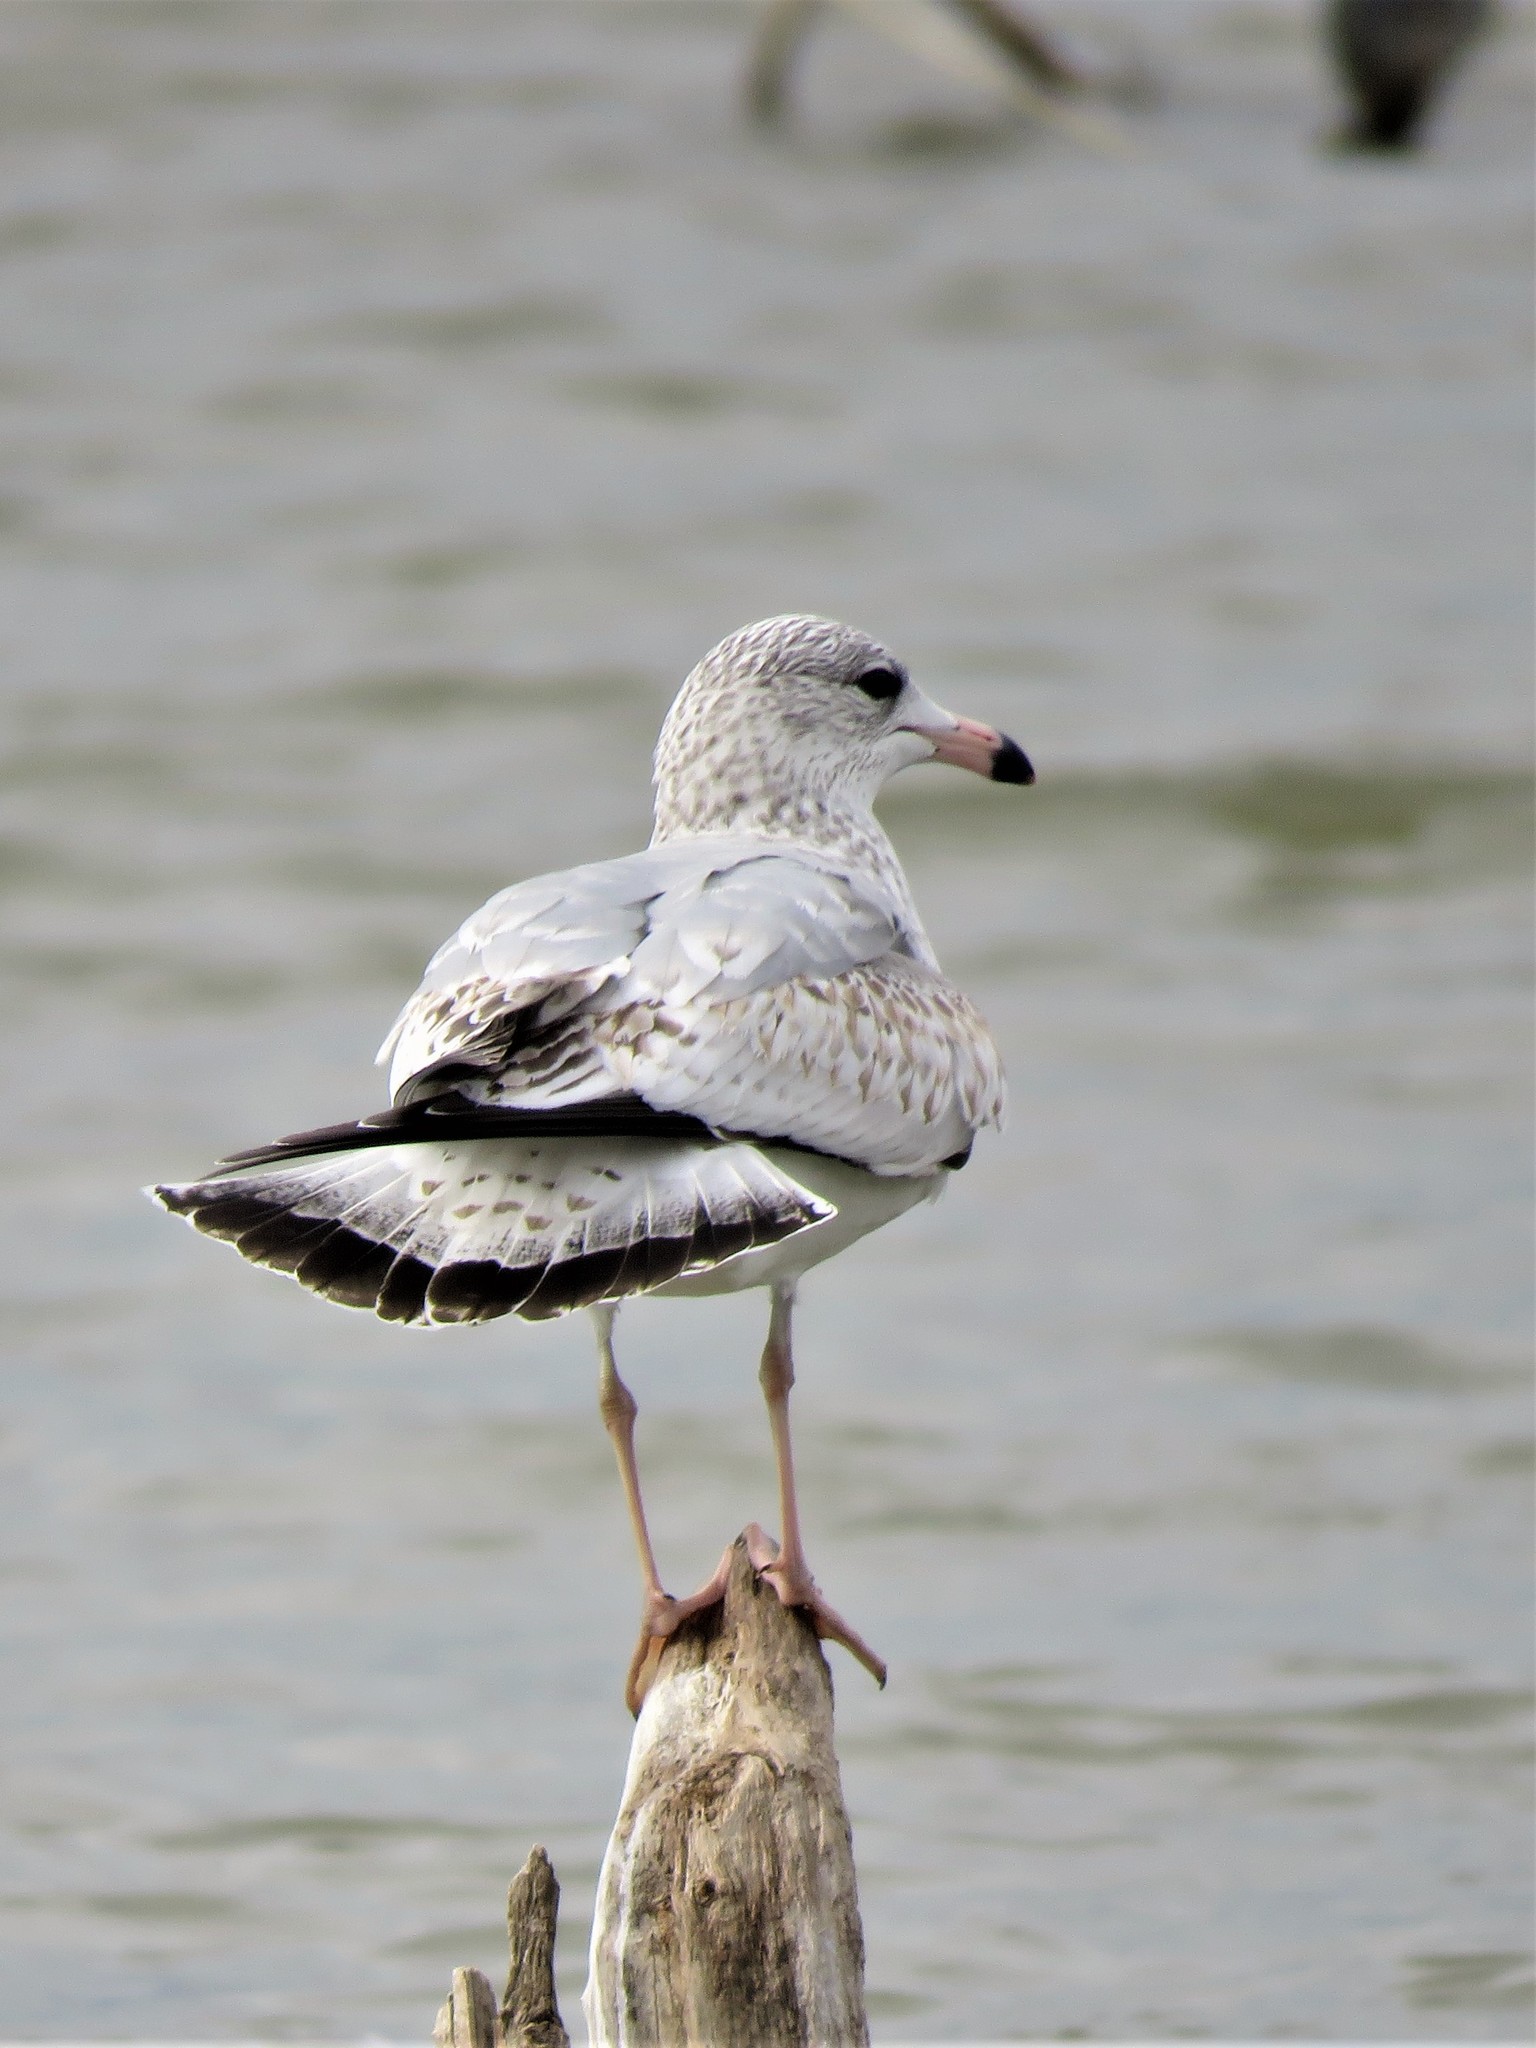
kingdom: Animalia
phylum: Chordata
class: Aves
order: Charadriiformes
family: Laridae
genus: Larus
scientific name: Larus delawarensis
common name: Ring-billed gull
